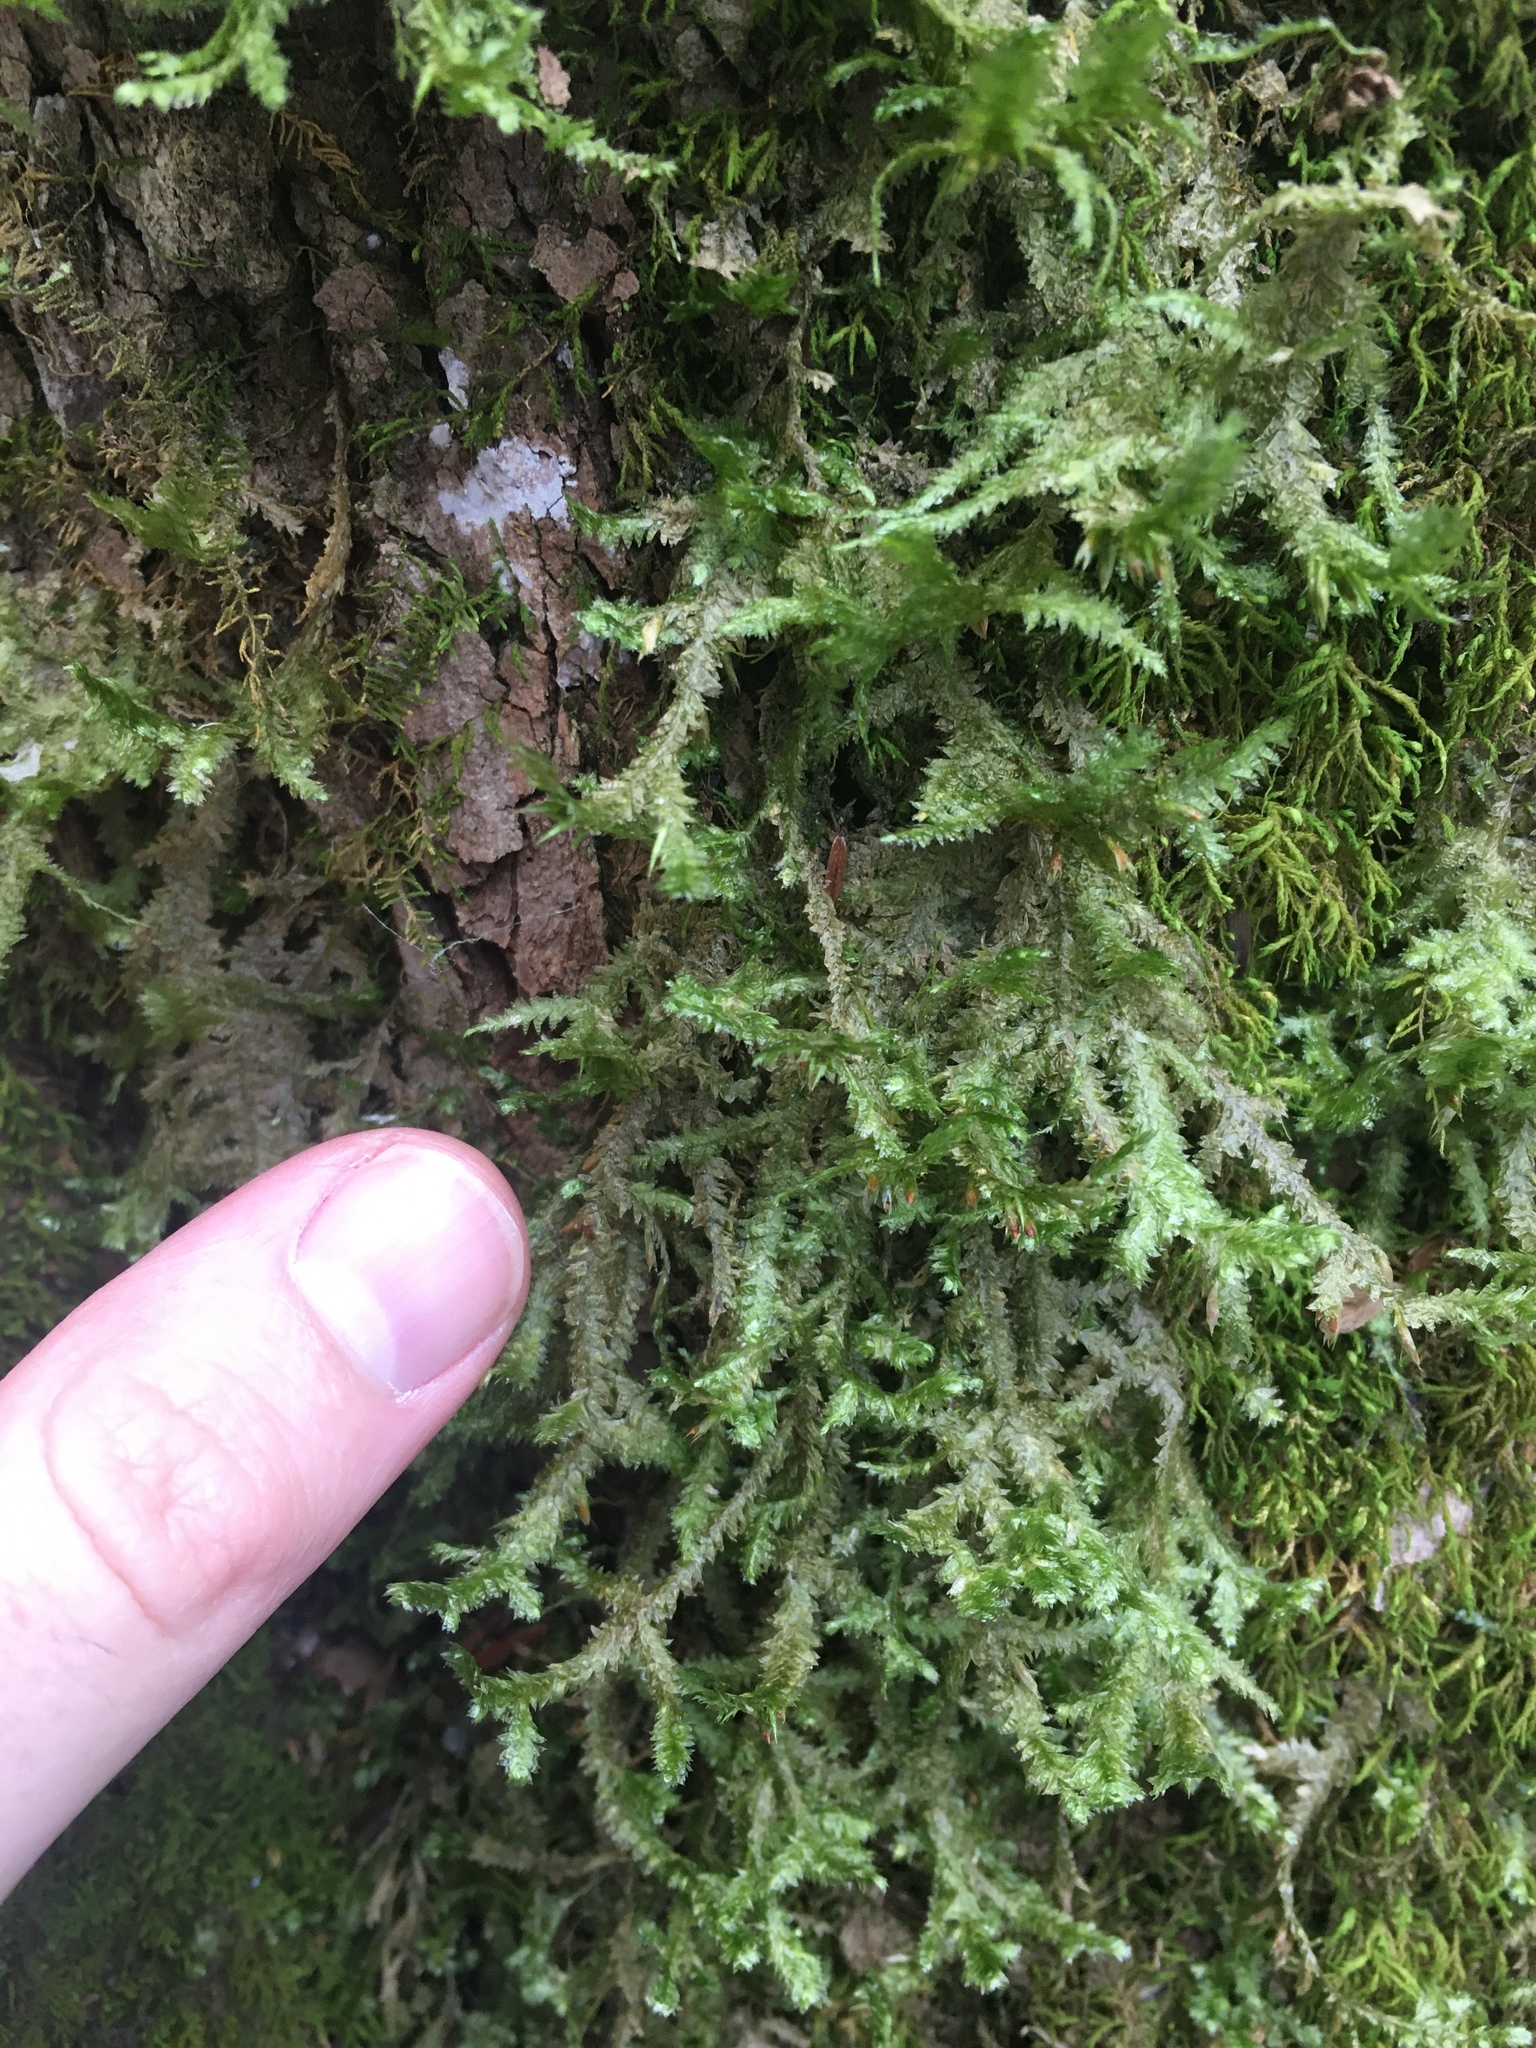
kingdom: Plantae
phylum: Bryophyta
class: Bryopsida
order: Hypnales
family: Neckeraceae
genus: Neckera
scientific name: Neckera pennata
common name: Feathery neckera
